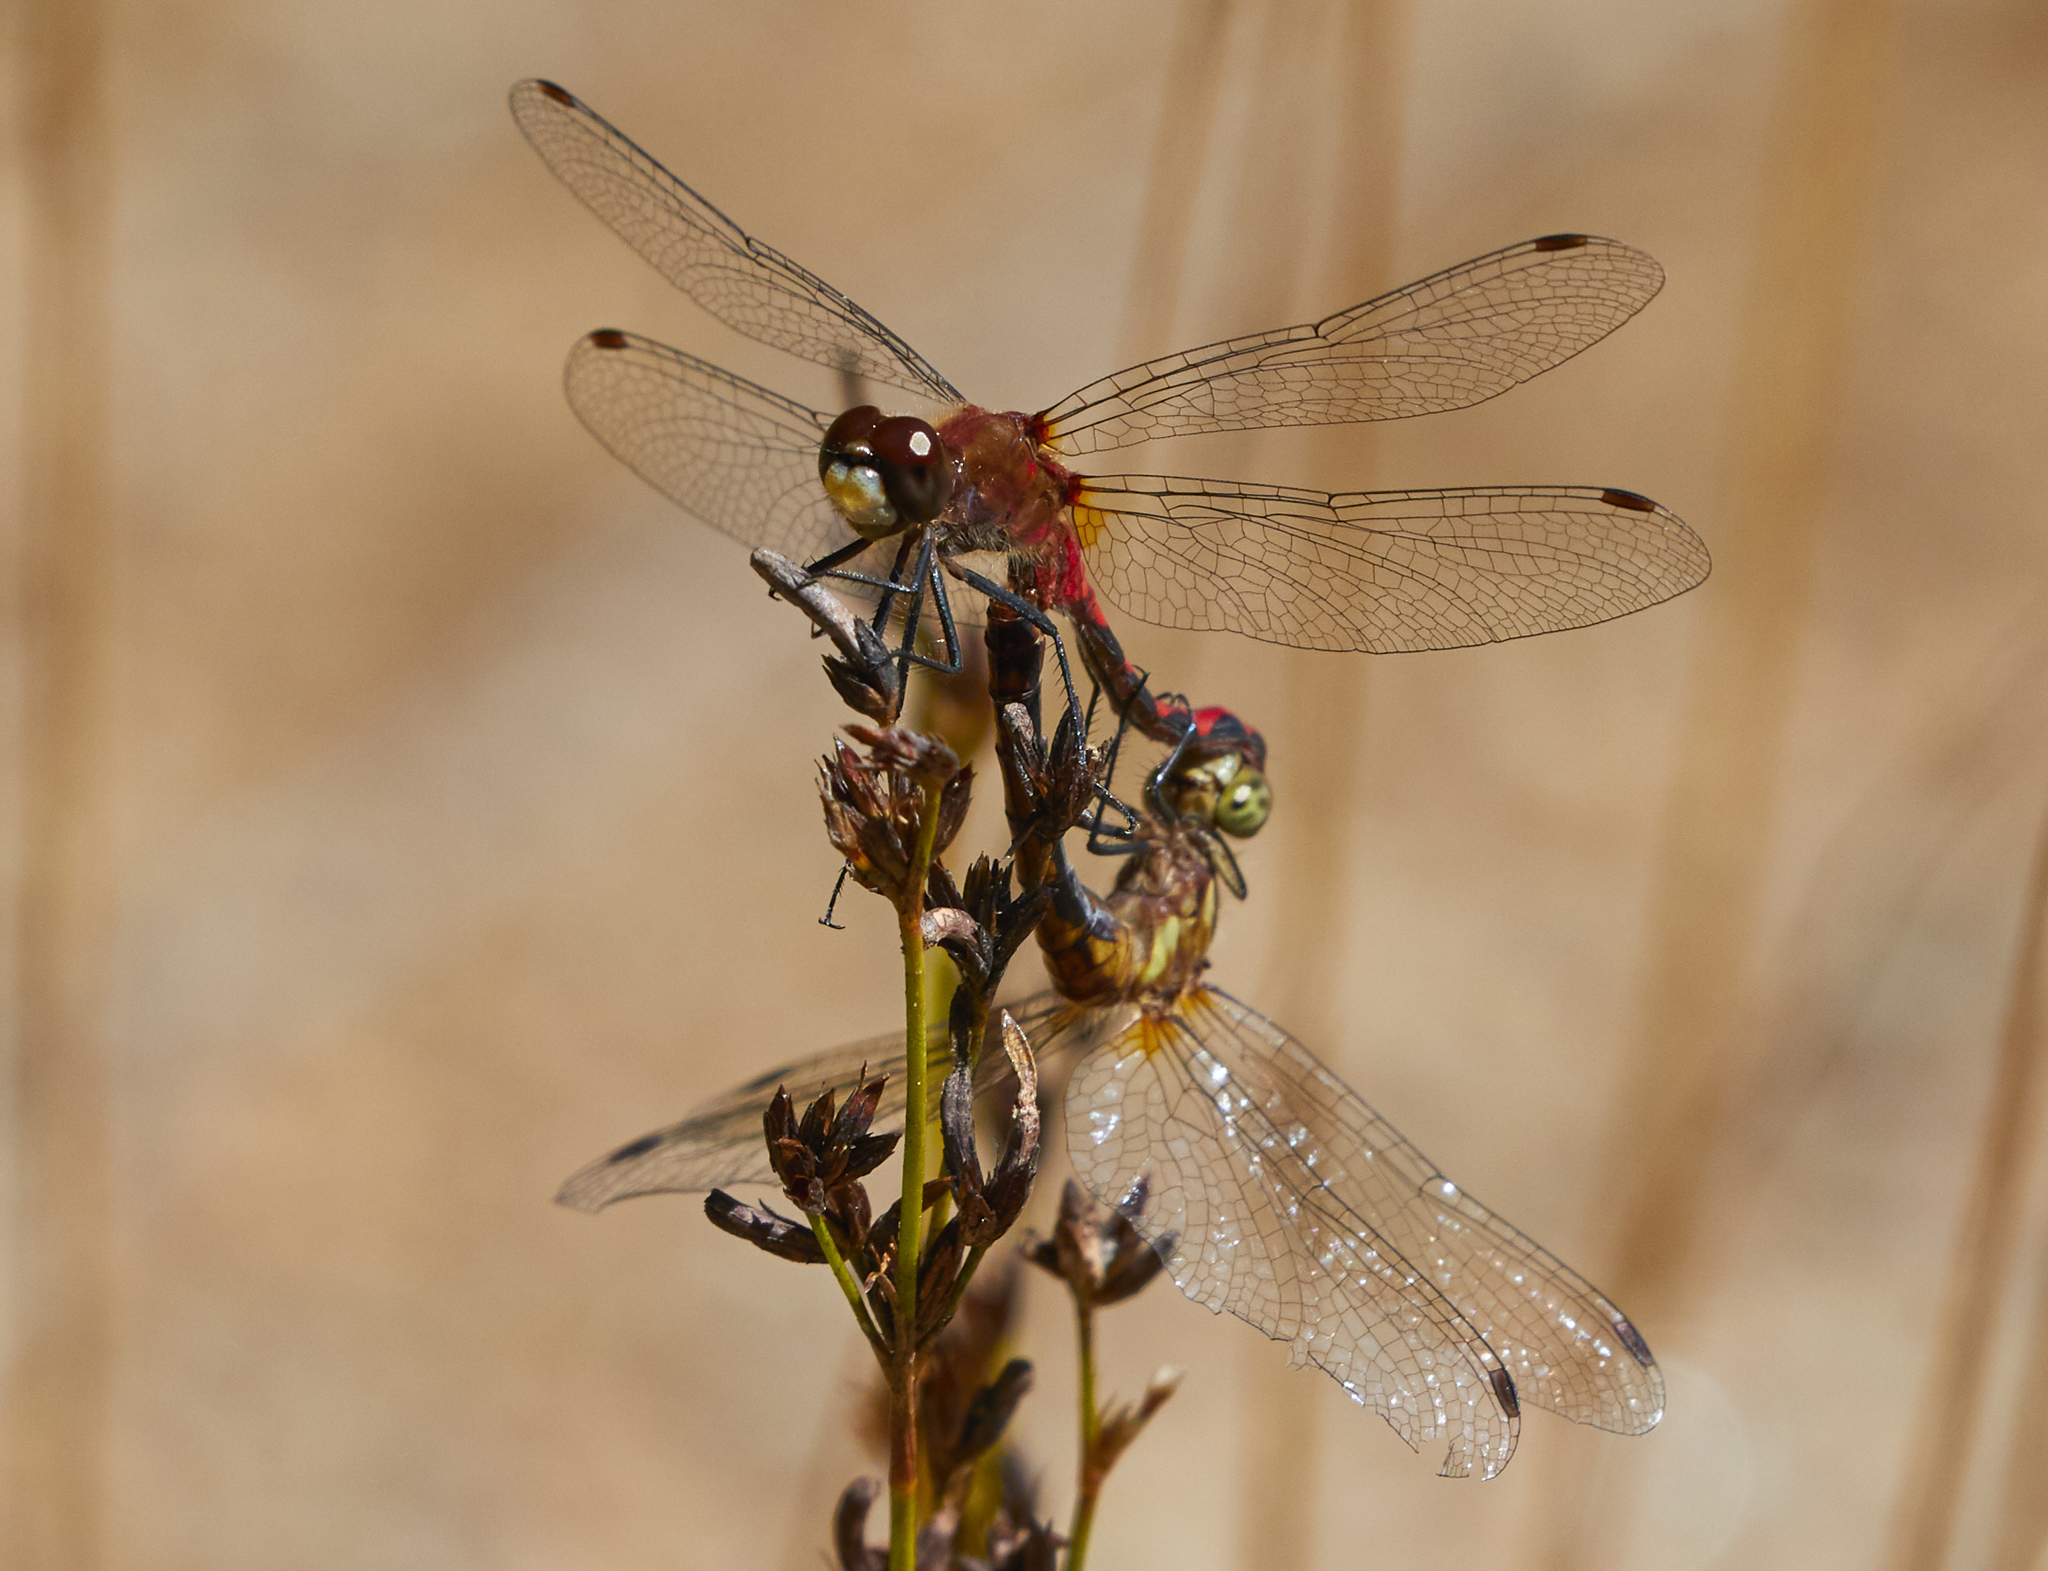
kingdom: Animalia
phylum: Arthropoda
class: Insecta
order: Odonata
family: Libellulidae
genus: Sympetrum
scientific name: Sympetrum obtrusum
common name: White-faced meadowhawk
